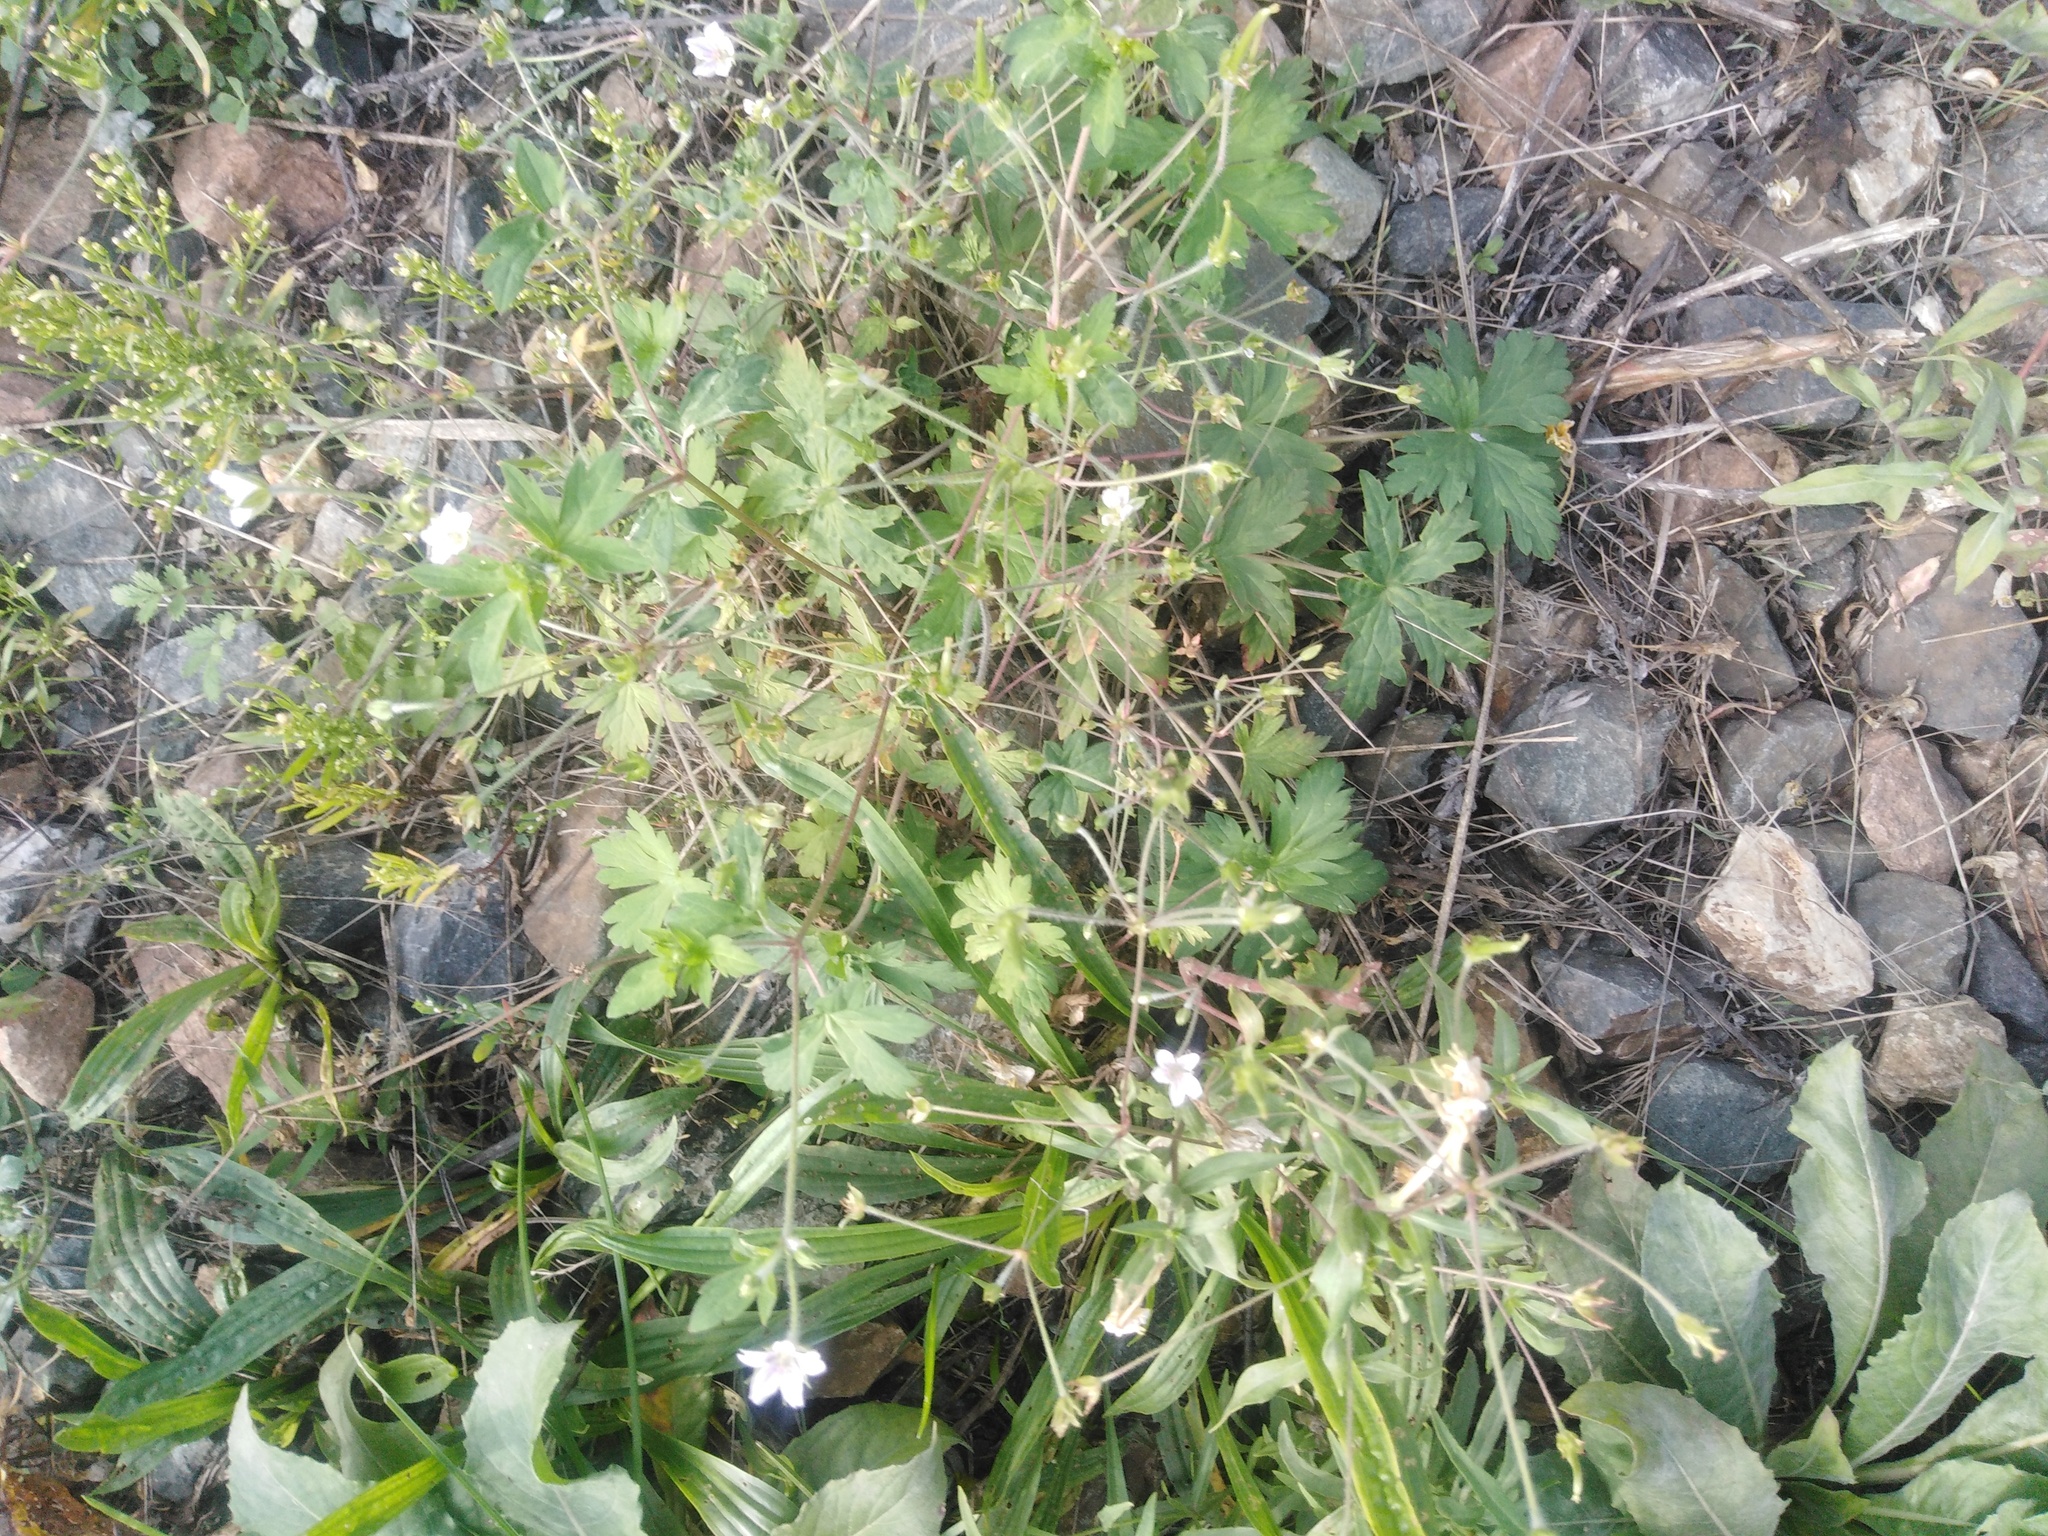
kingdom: Plantae
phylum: Tracheophyta
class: Magnoliopsida
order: Geraniales
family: Geraniaceae
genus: Geranium
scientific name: Geranium sibiricum
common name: Siberian crane's-bill
